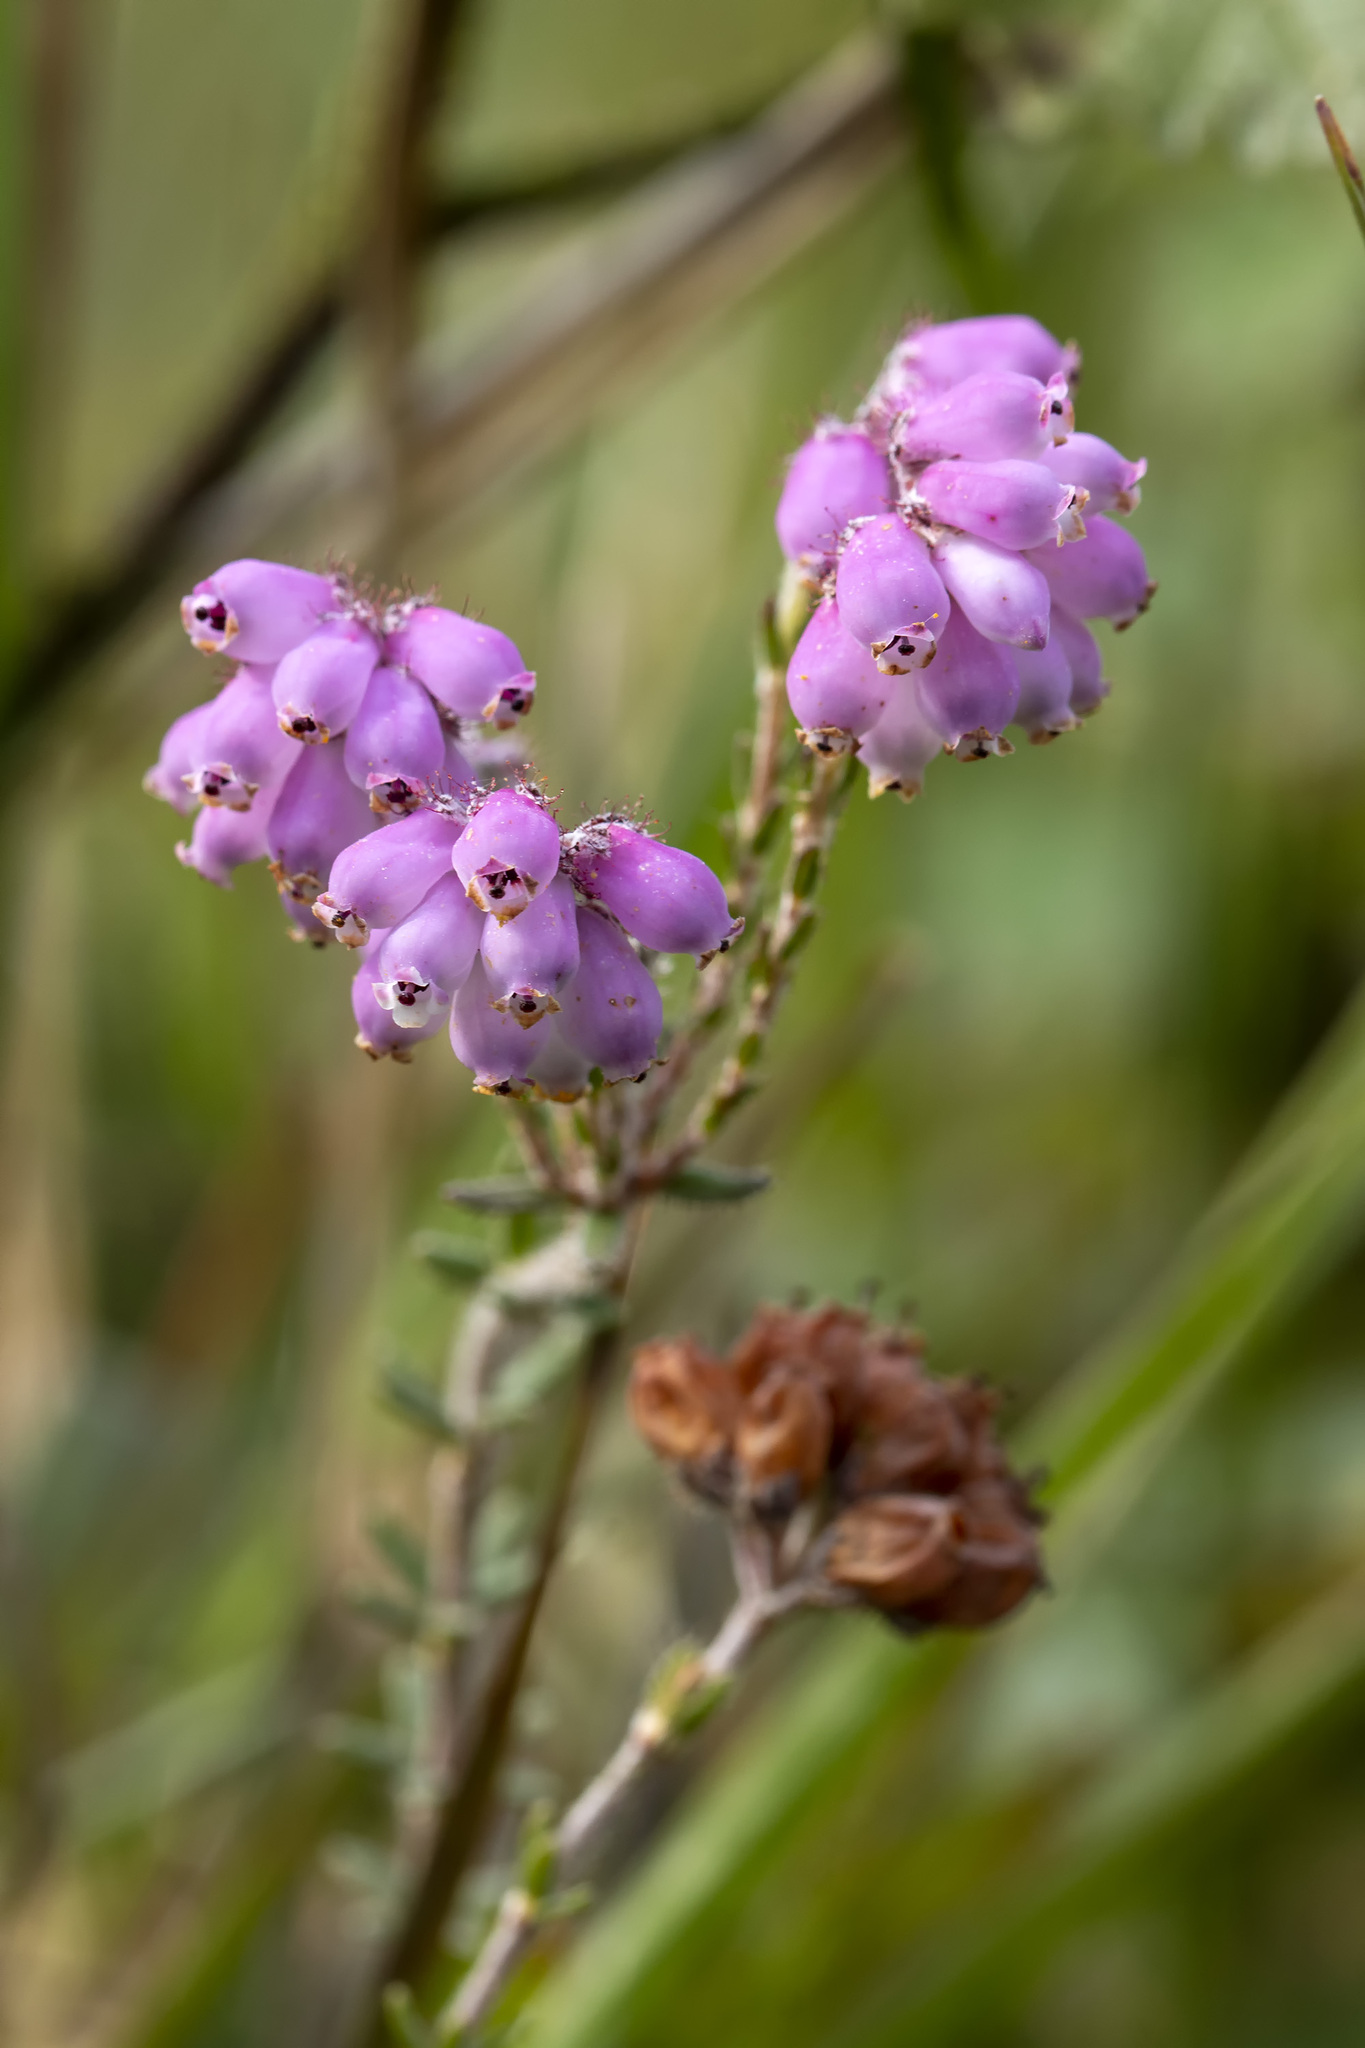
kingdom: Plantae
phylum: Tracheophyta
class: Magnoliopsida
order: Ericales
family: Ericaceae
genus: Erica
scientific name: Erica tetralix
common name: Cross-leaved heath
